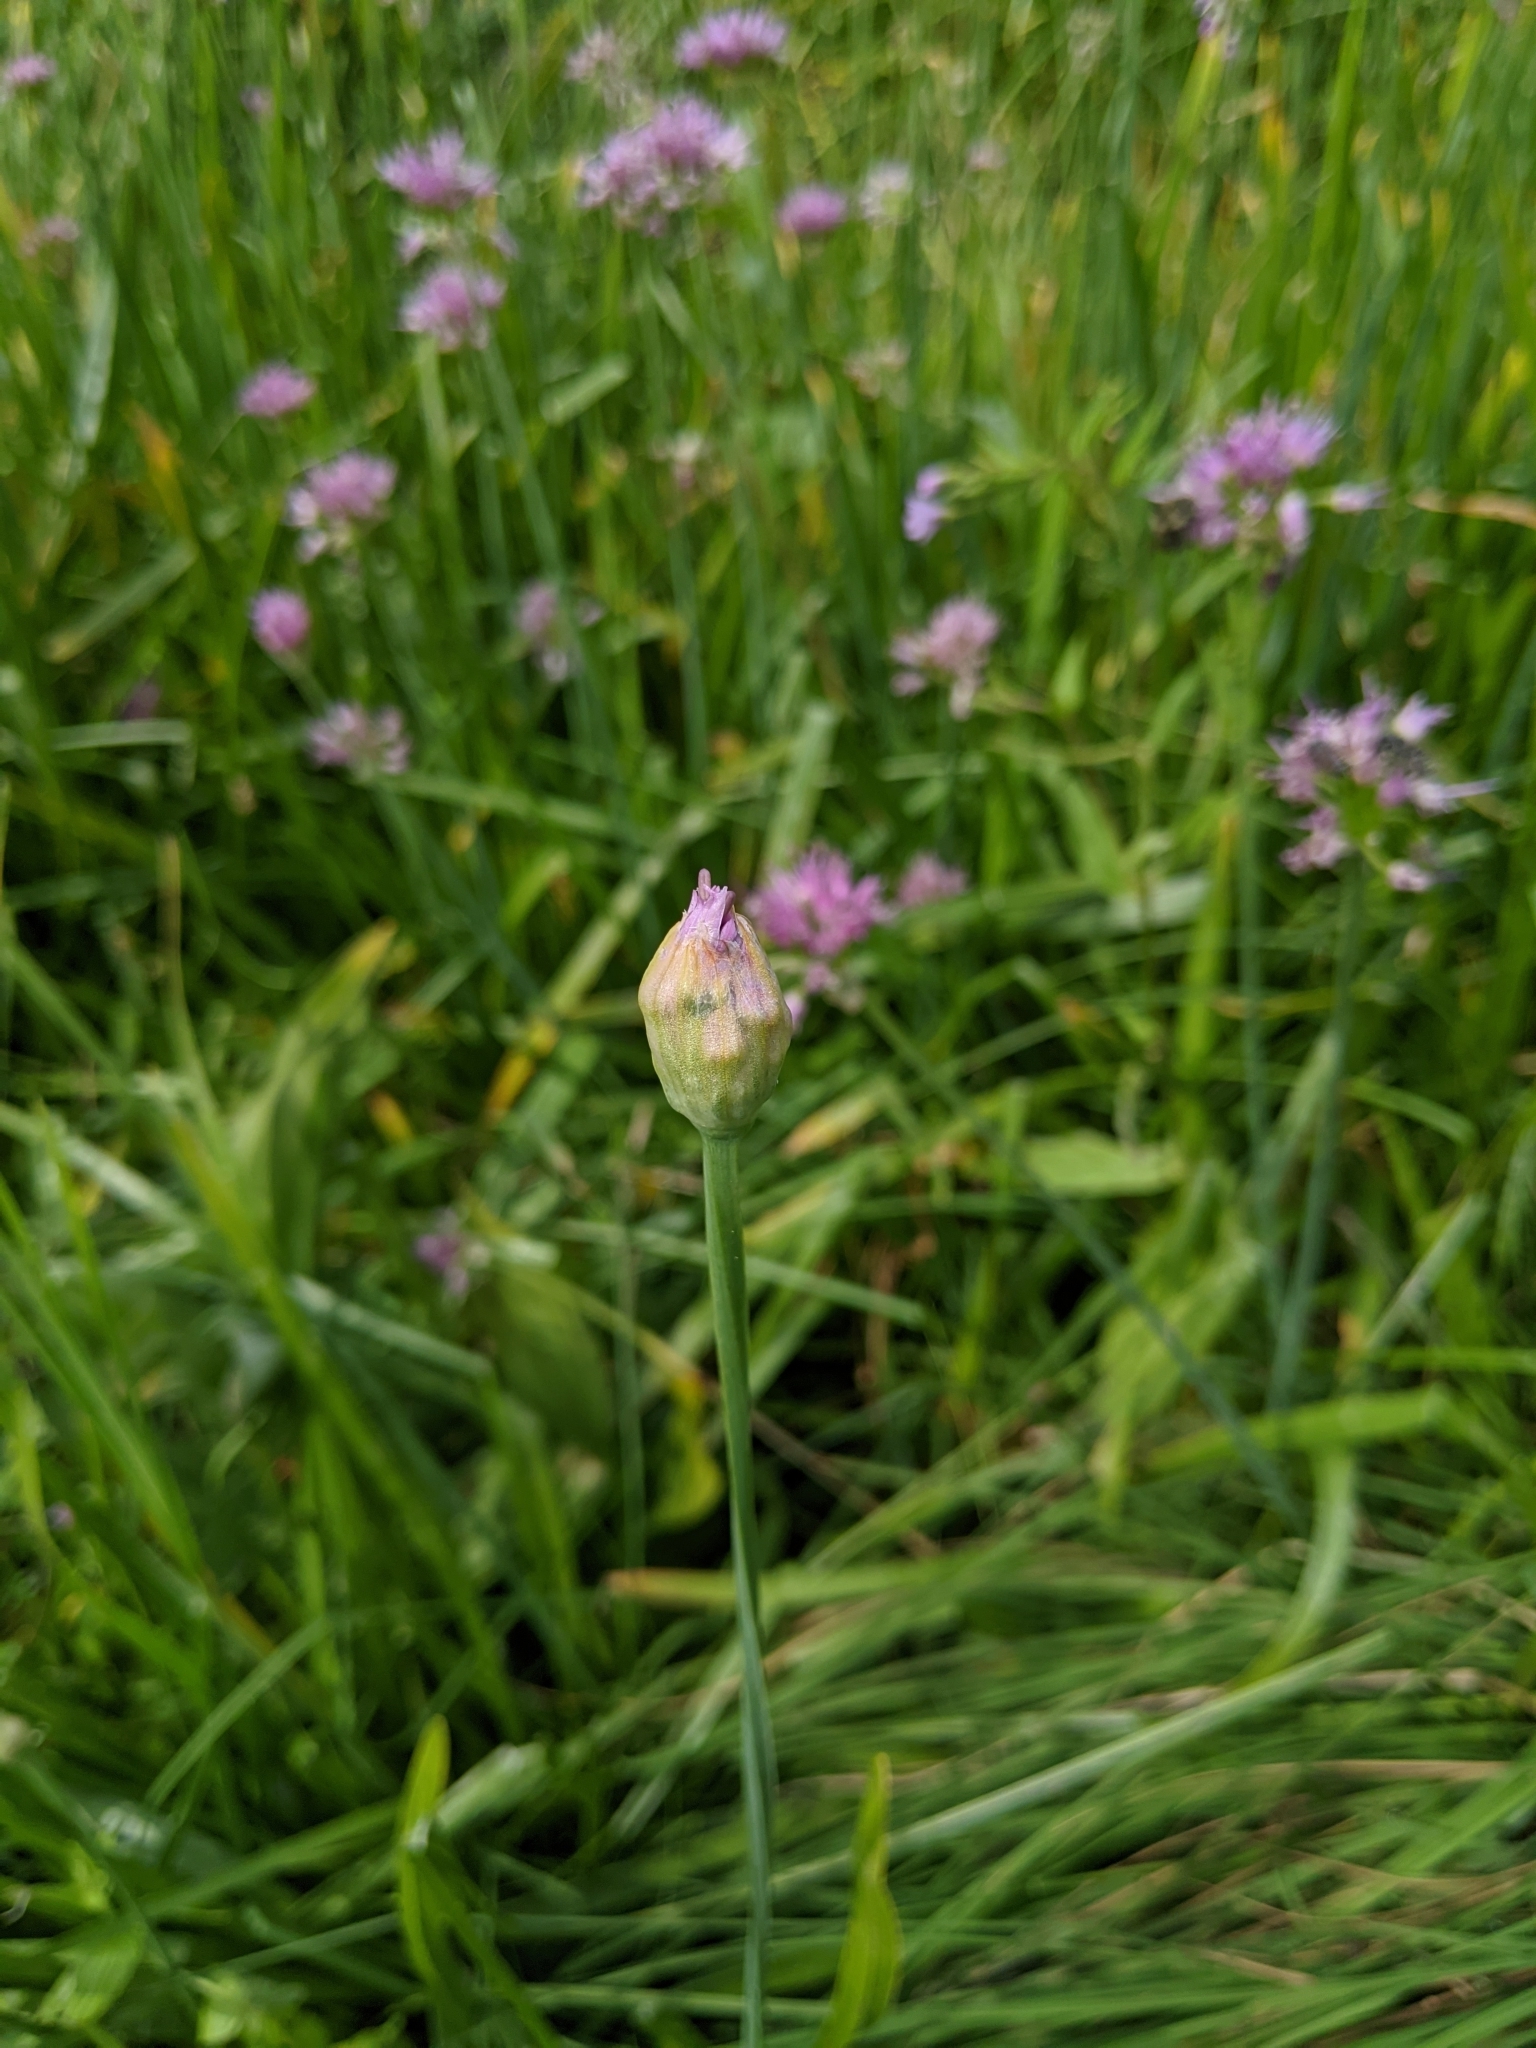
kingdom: Plantae
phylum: Tracheophyta
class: Liliopsida
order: Asparagales
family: Amaryllidaceae
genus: Allium
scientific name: Allium validum
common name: Pacific mountain onion
